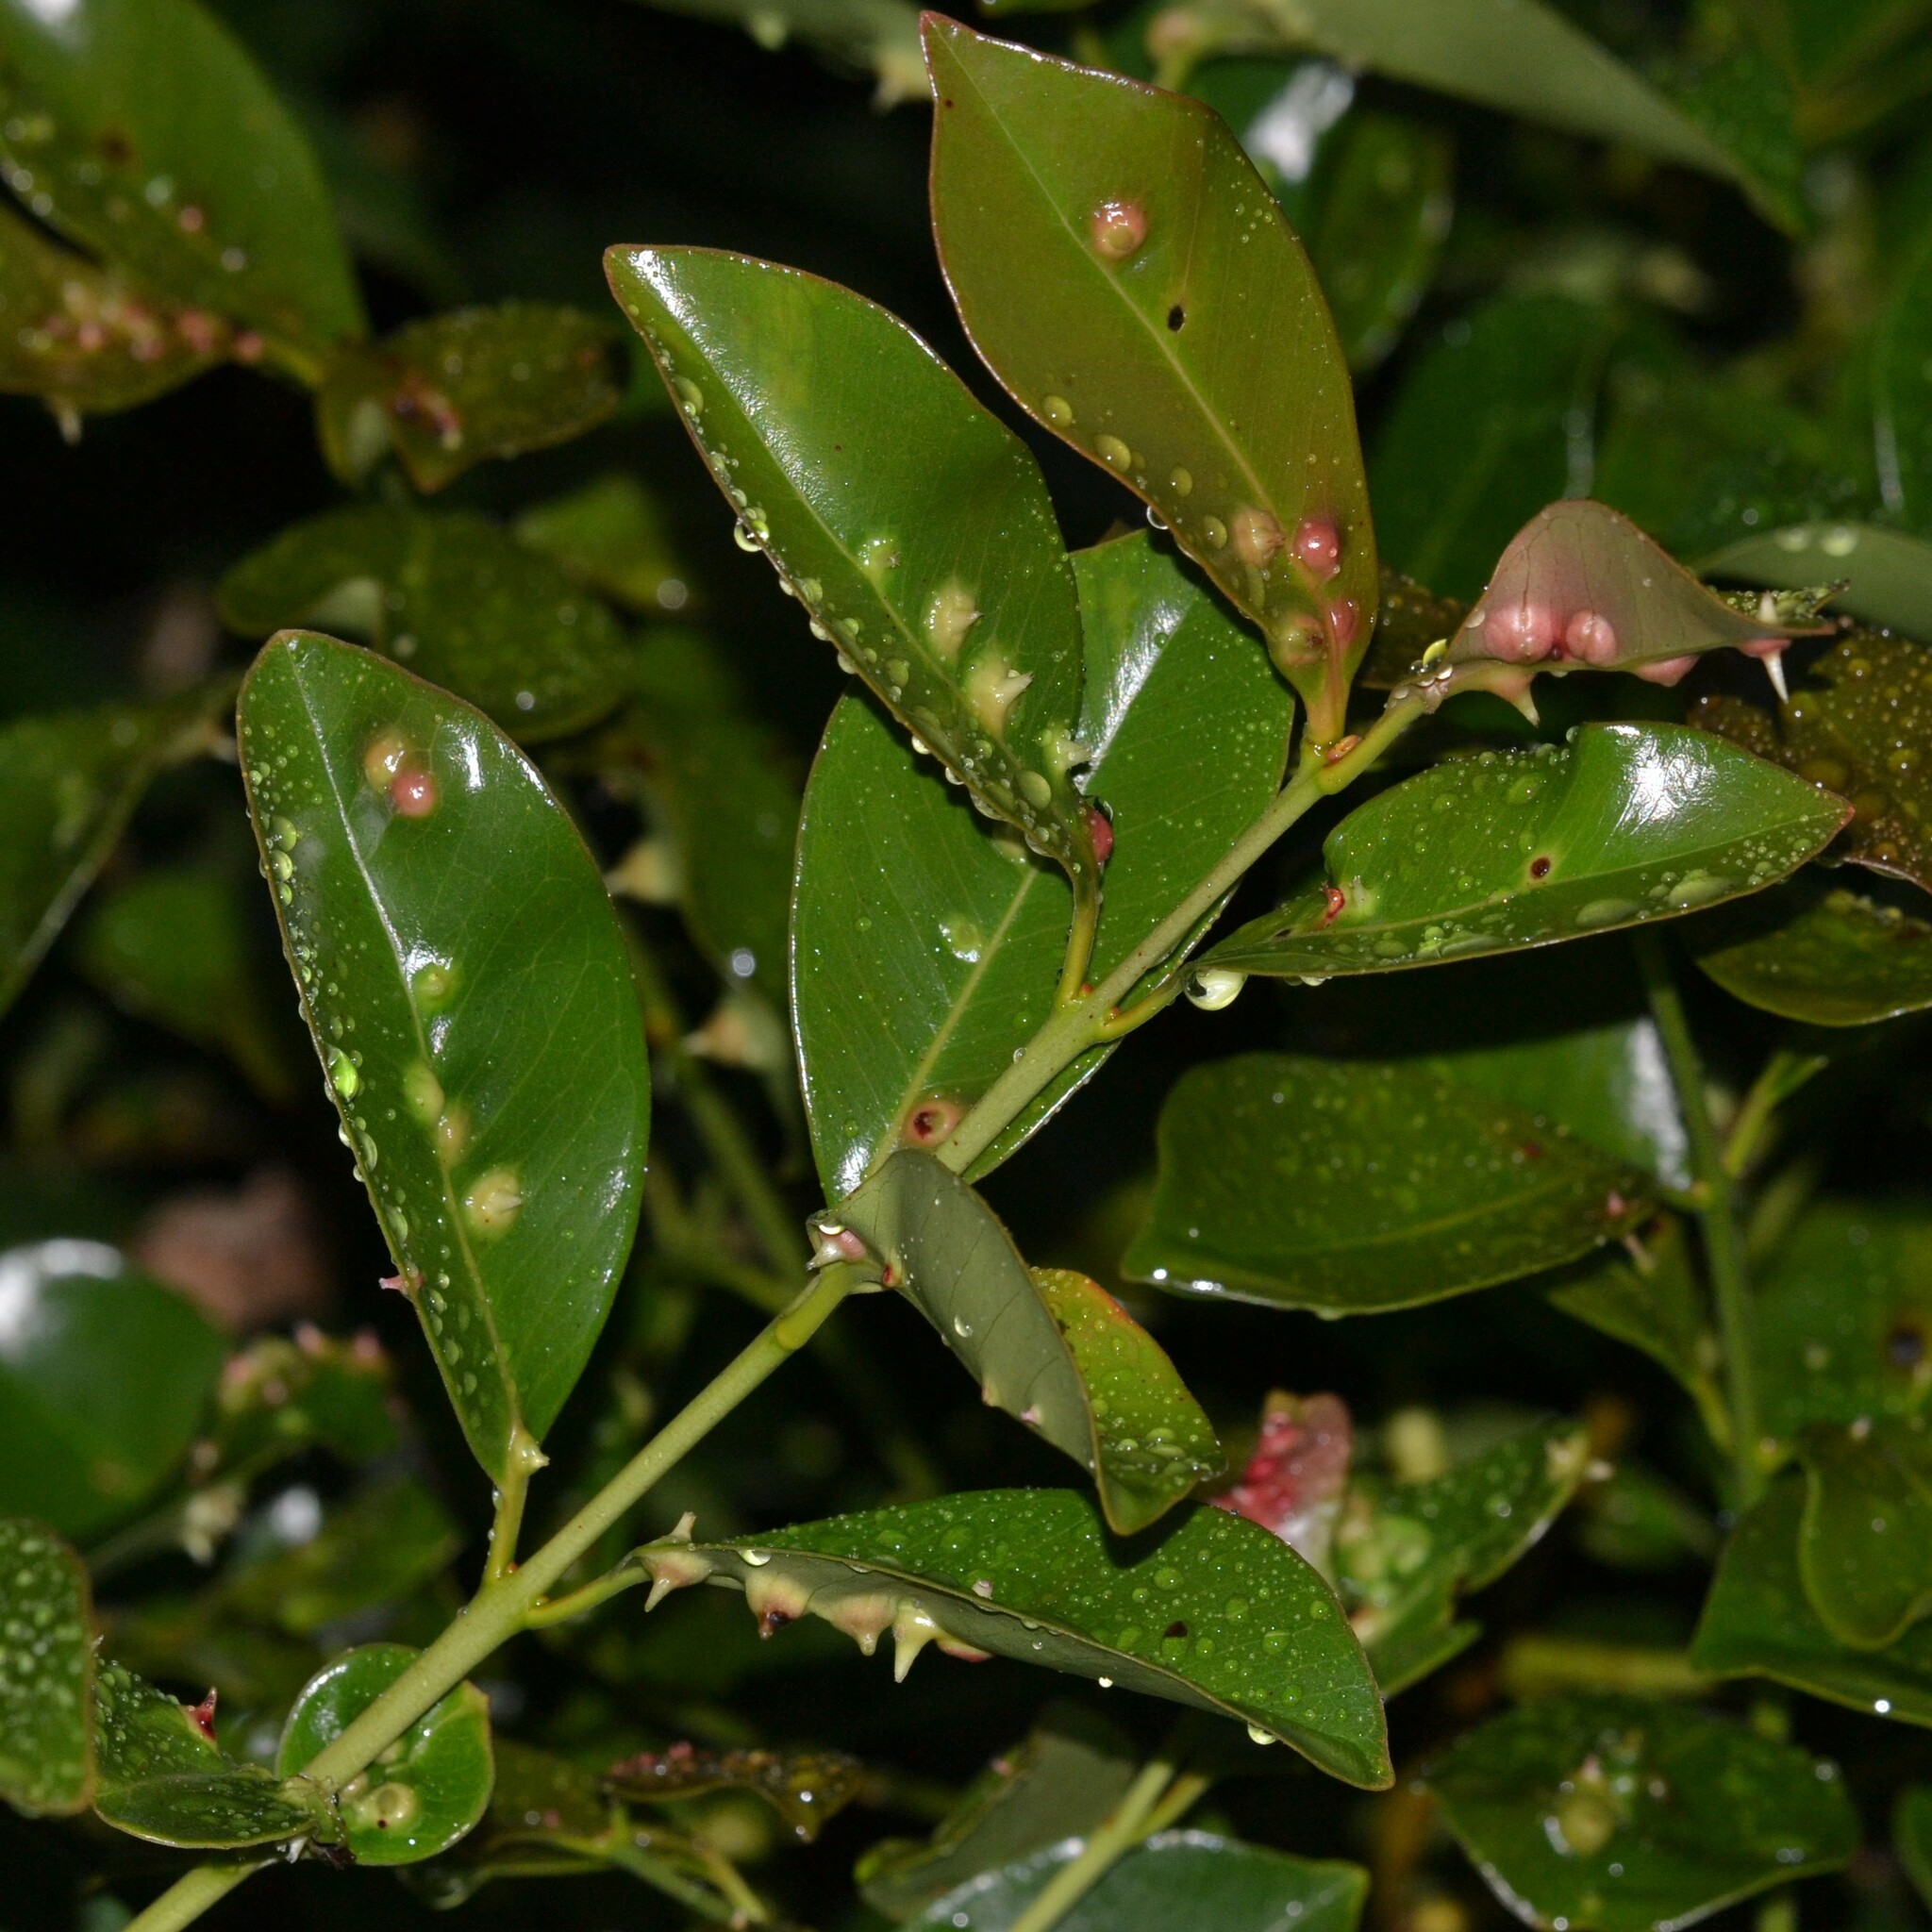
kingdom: Animalia
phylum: Arthropoda
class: Insecta
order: Hemiptera
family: Eriococcidae
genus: Tectococcus
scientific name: Tectococcus ovatus
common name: Eriococcid scale
